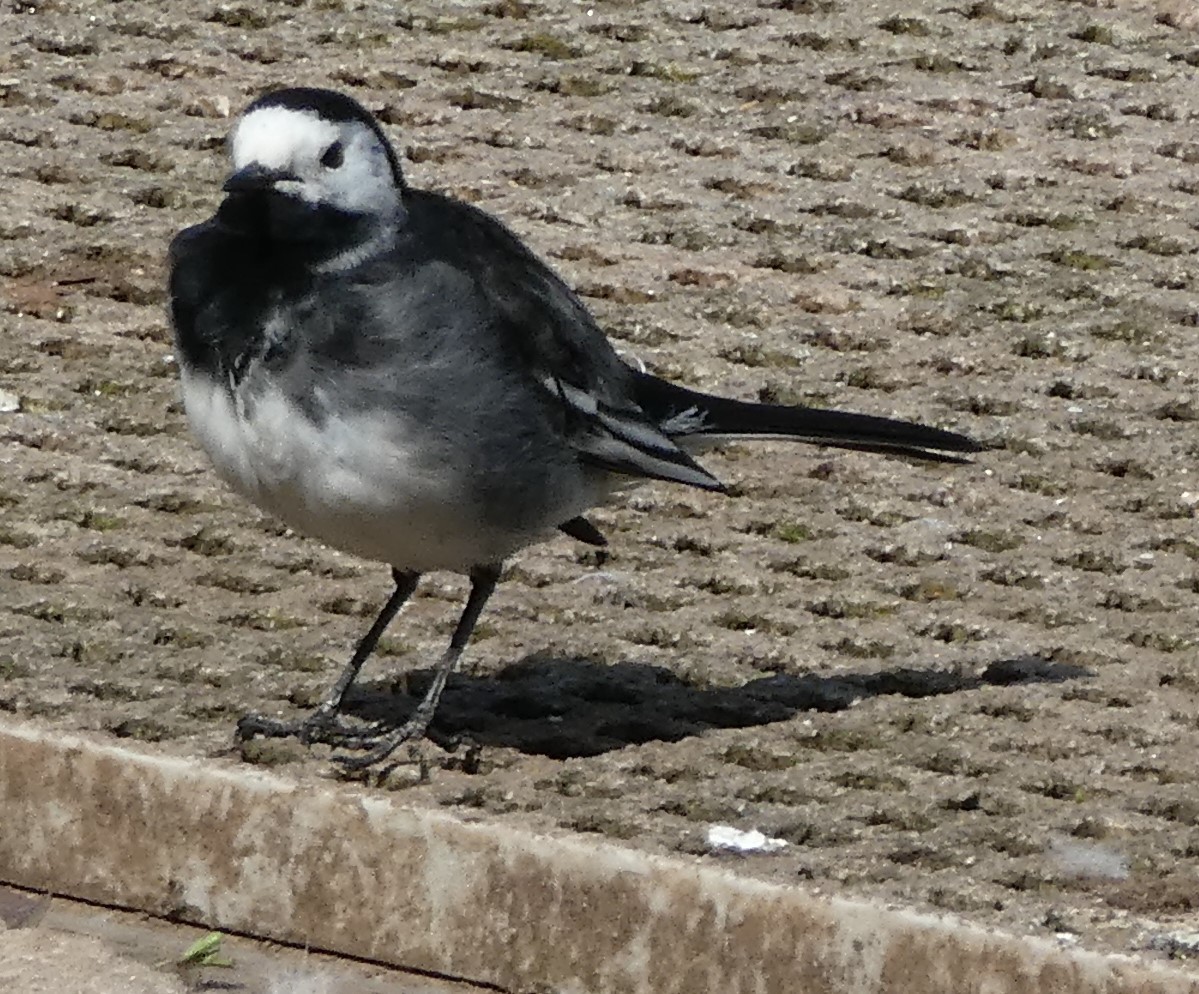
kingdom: Animalia
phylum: Chordata
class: Aves
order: Passeriformes
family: Motacillidae
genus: Motacilla
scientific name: Motacilla alba
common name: White wagtail
